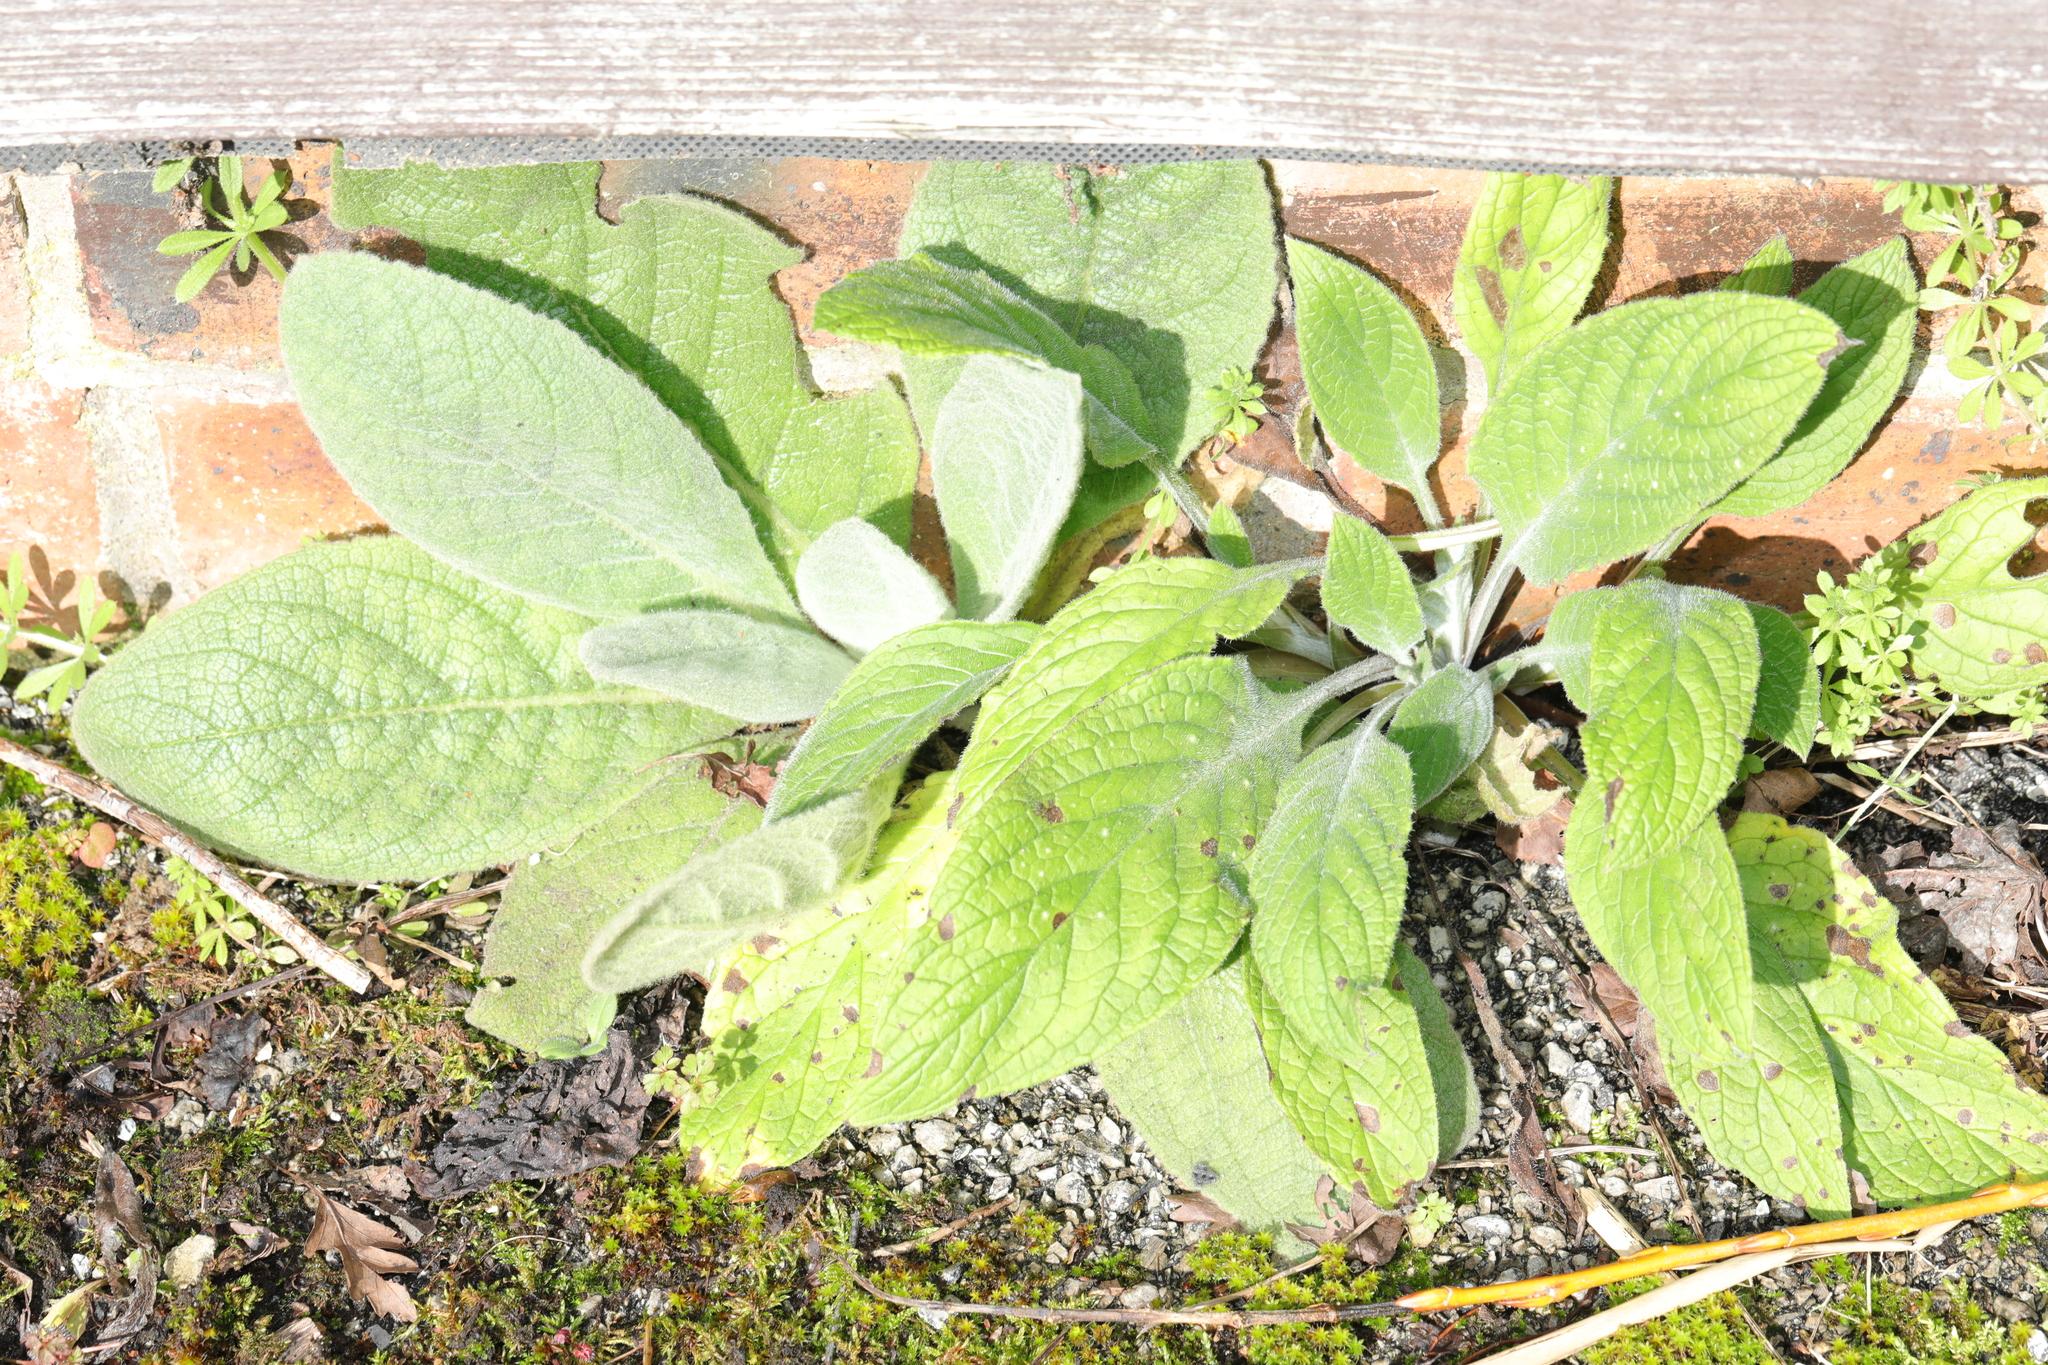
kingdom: Plantae
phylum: Tracheophyta
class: Magnoliopsida
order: Lamiales
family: Plantaginaceae
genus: Digitalis
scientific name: Digitalis purpurea
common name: Foxglove
